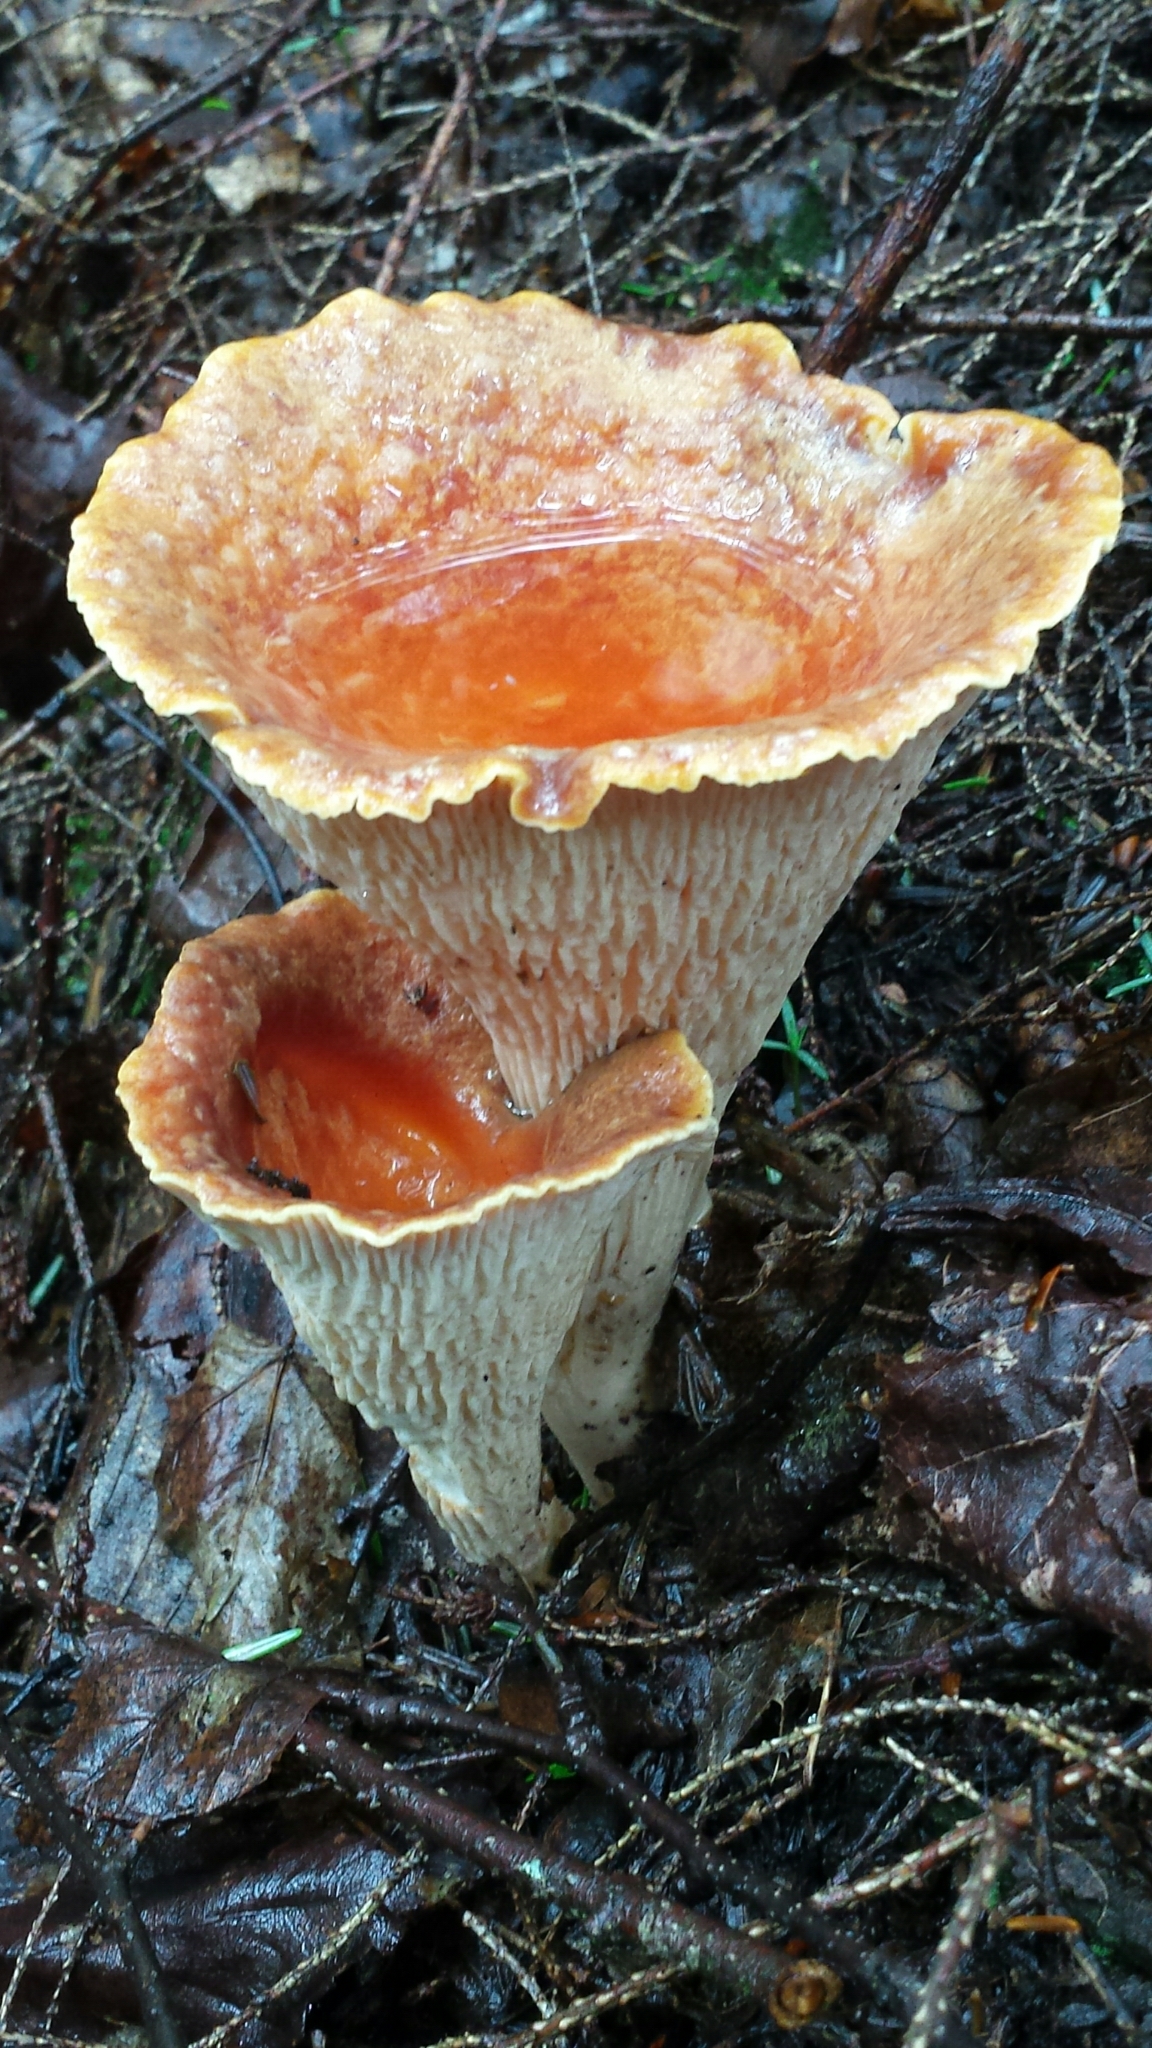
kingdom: Fungi
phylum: Basidiomycota
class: Agaricomycetes
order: Gomphales
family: Gomphaceae
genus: Turbinellus
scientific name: Turbinellus floccosus
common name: Scaly chanterelle
